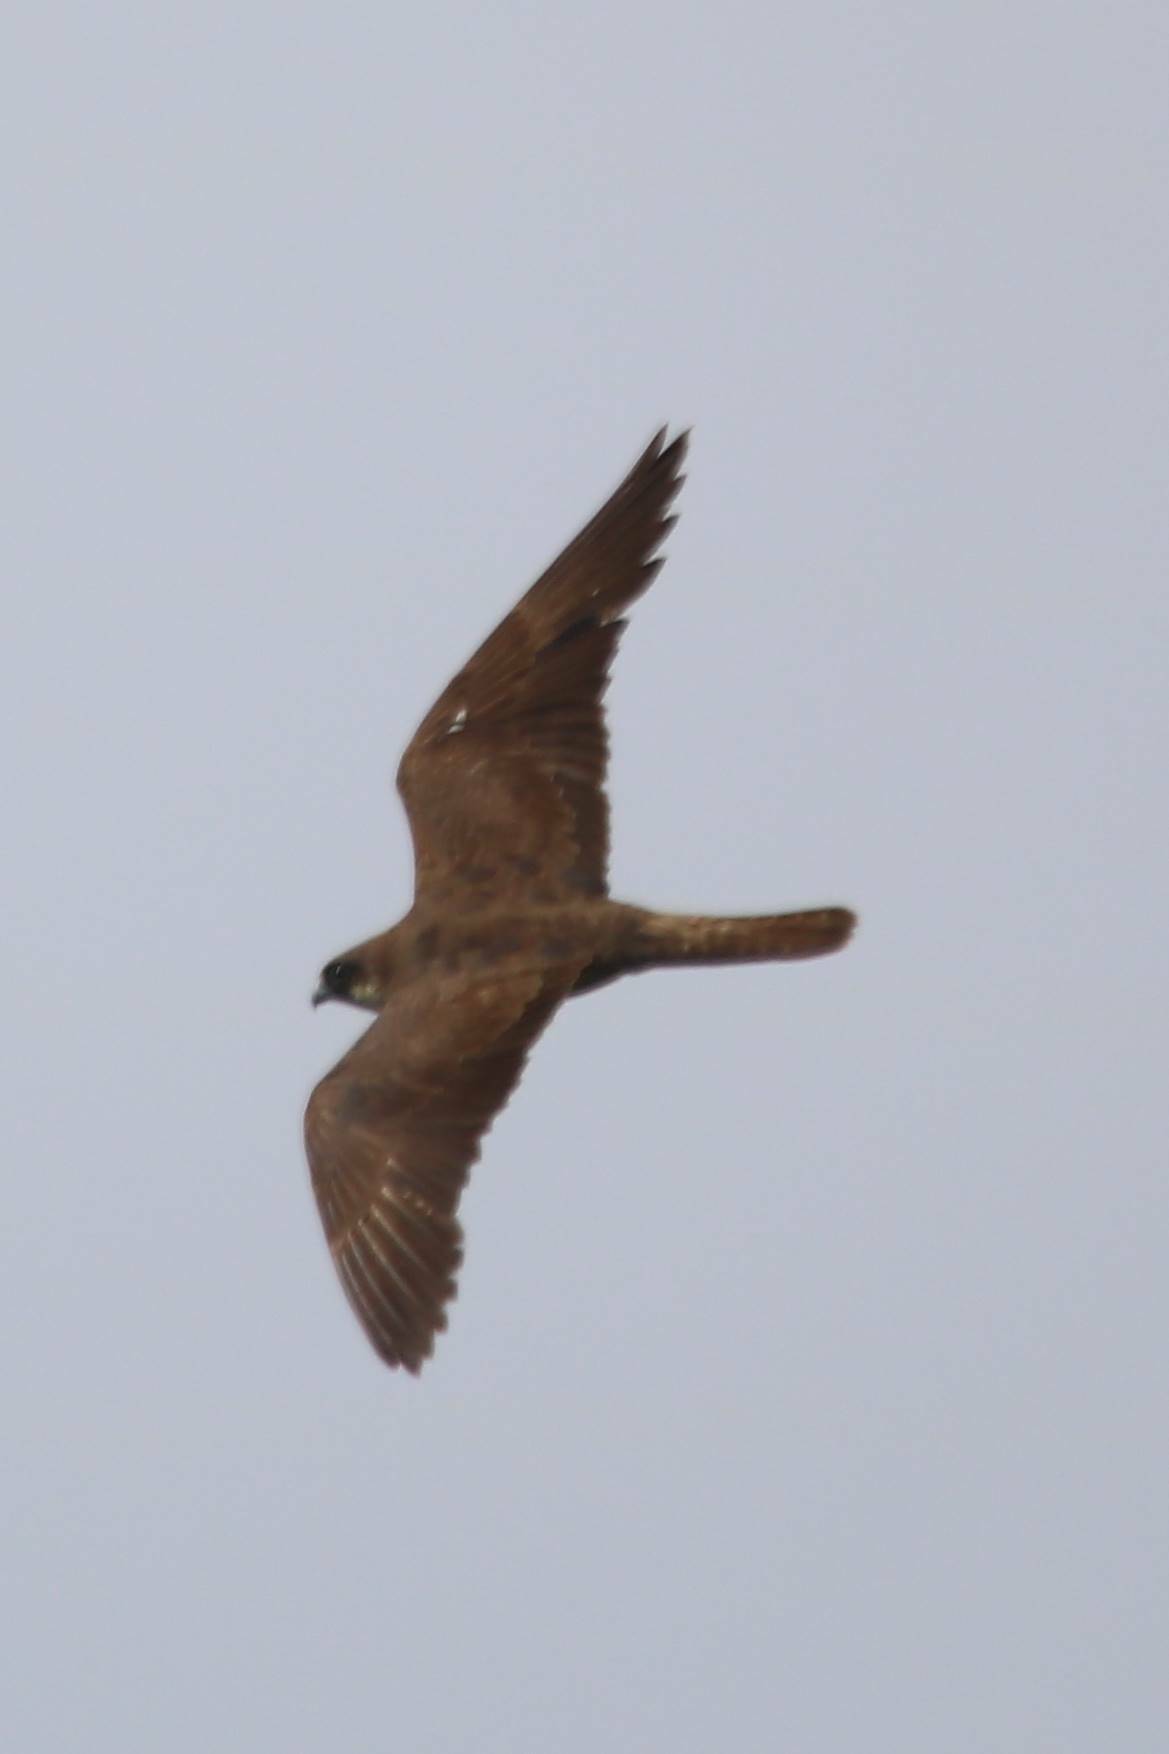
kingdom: Animalia
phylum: Chordata
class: Aves
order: Falconiformes
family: Falconidae
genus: Falco
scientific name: Falco eleonorae
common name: Eleonora's falcon
